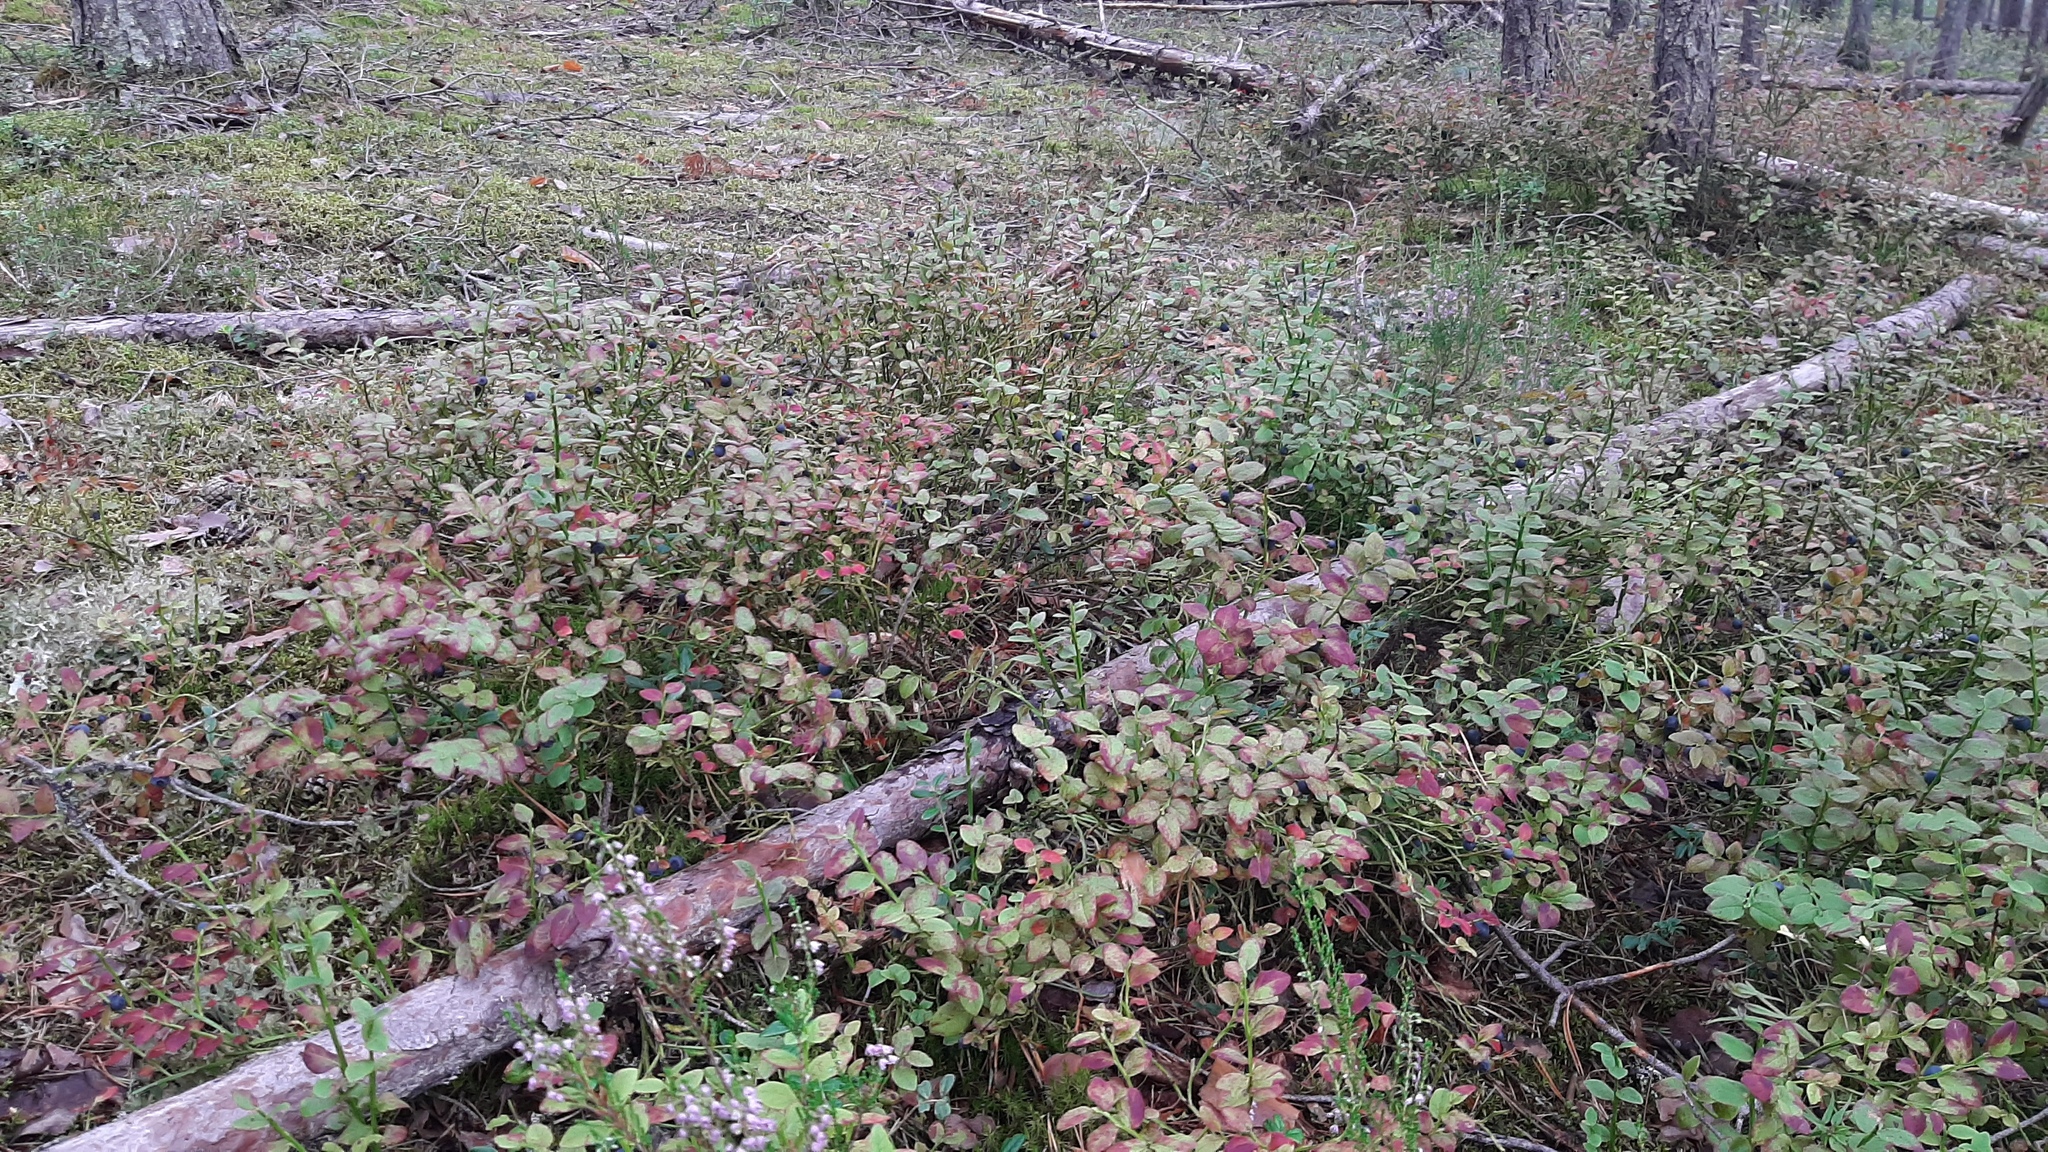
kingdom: Plantae
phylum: Tracheophyta
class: Magnoliopsida
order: Ericales
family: Ericaceae
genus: Vaccinium
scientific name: Vaccinium myrtillus
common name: Bilberry
